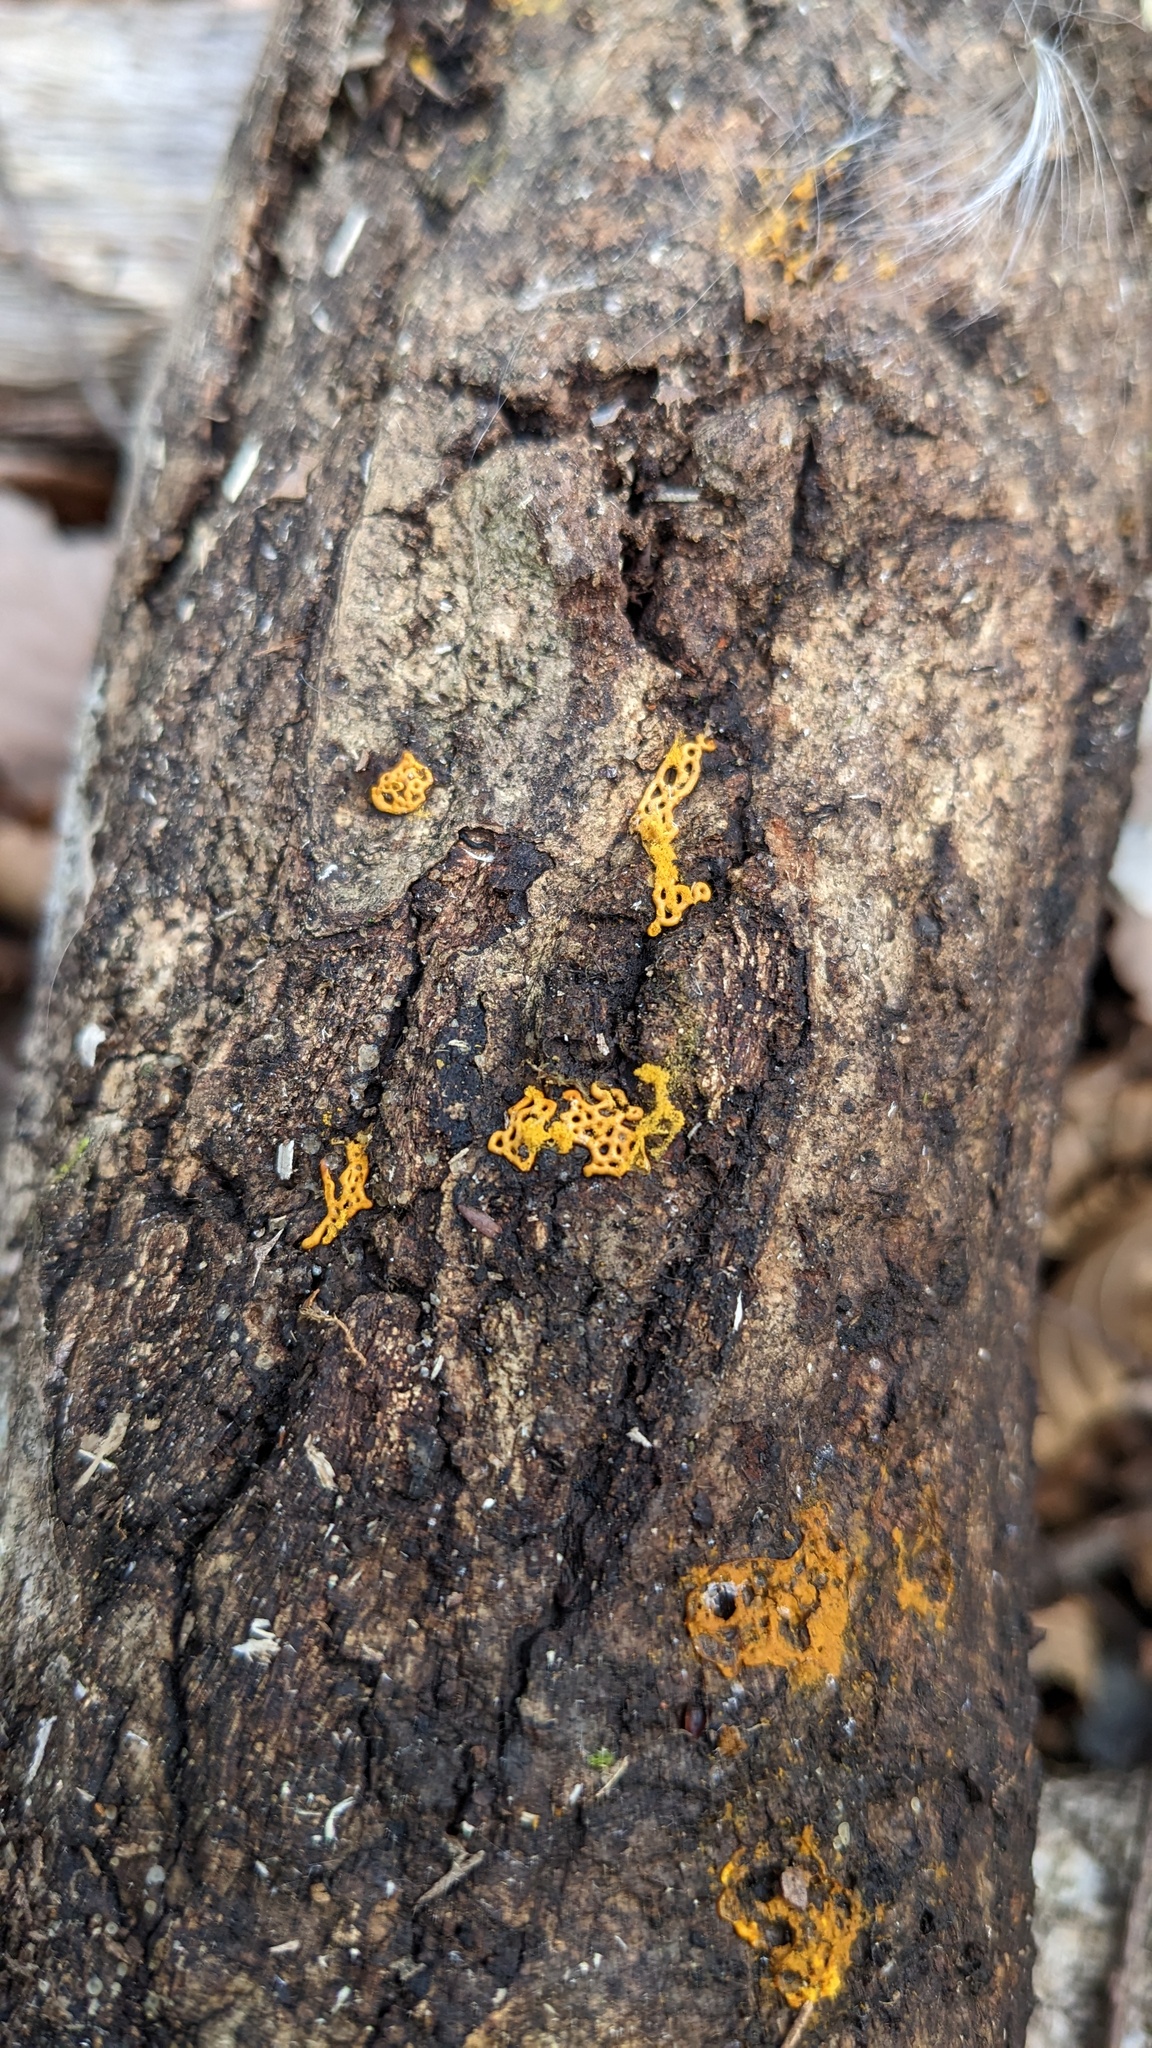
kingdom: Protozoa
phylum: Mycetozoa
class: Myxomycetes
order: Trichiales
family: Arcyriaceae
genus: Hemitrichia
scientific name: Hemitrichia serpula
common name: Pretzel slime mold
